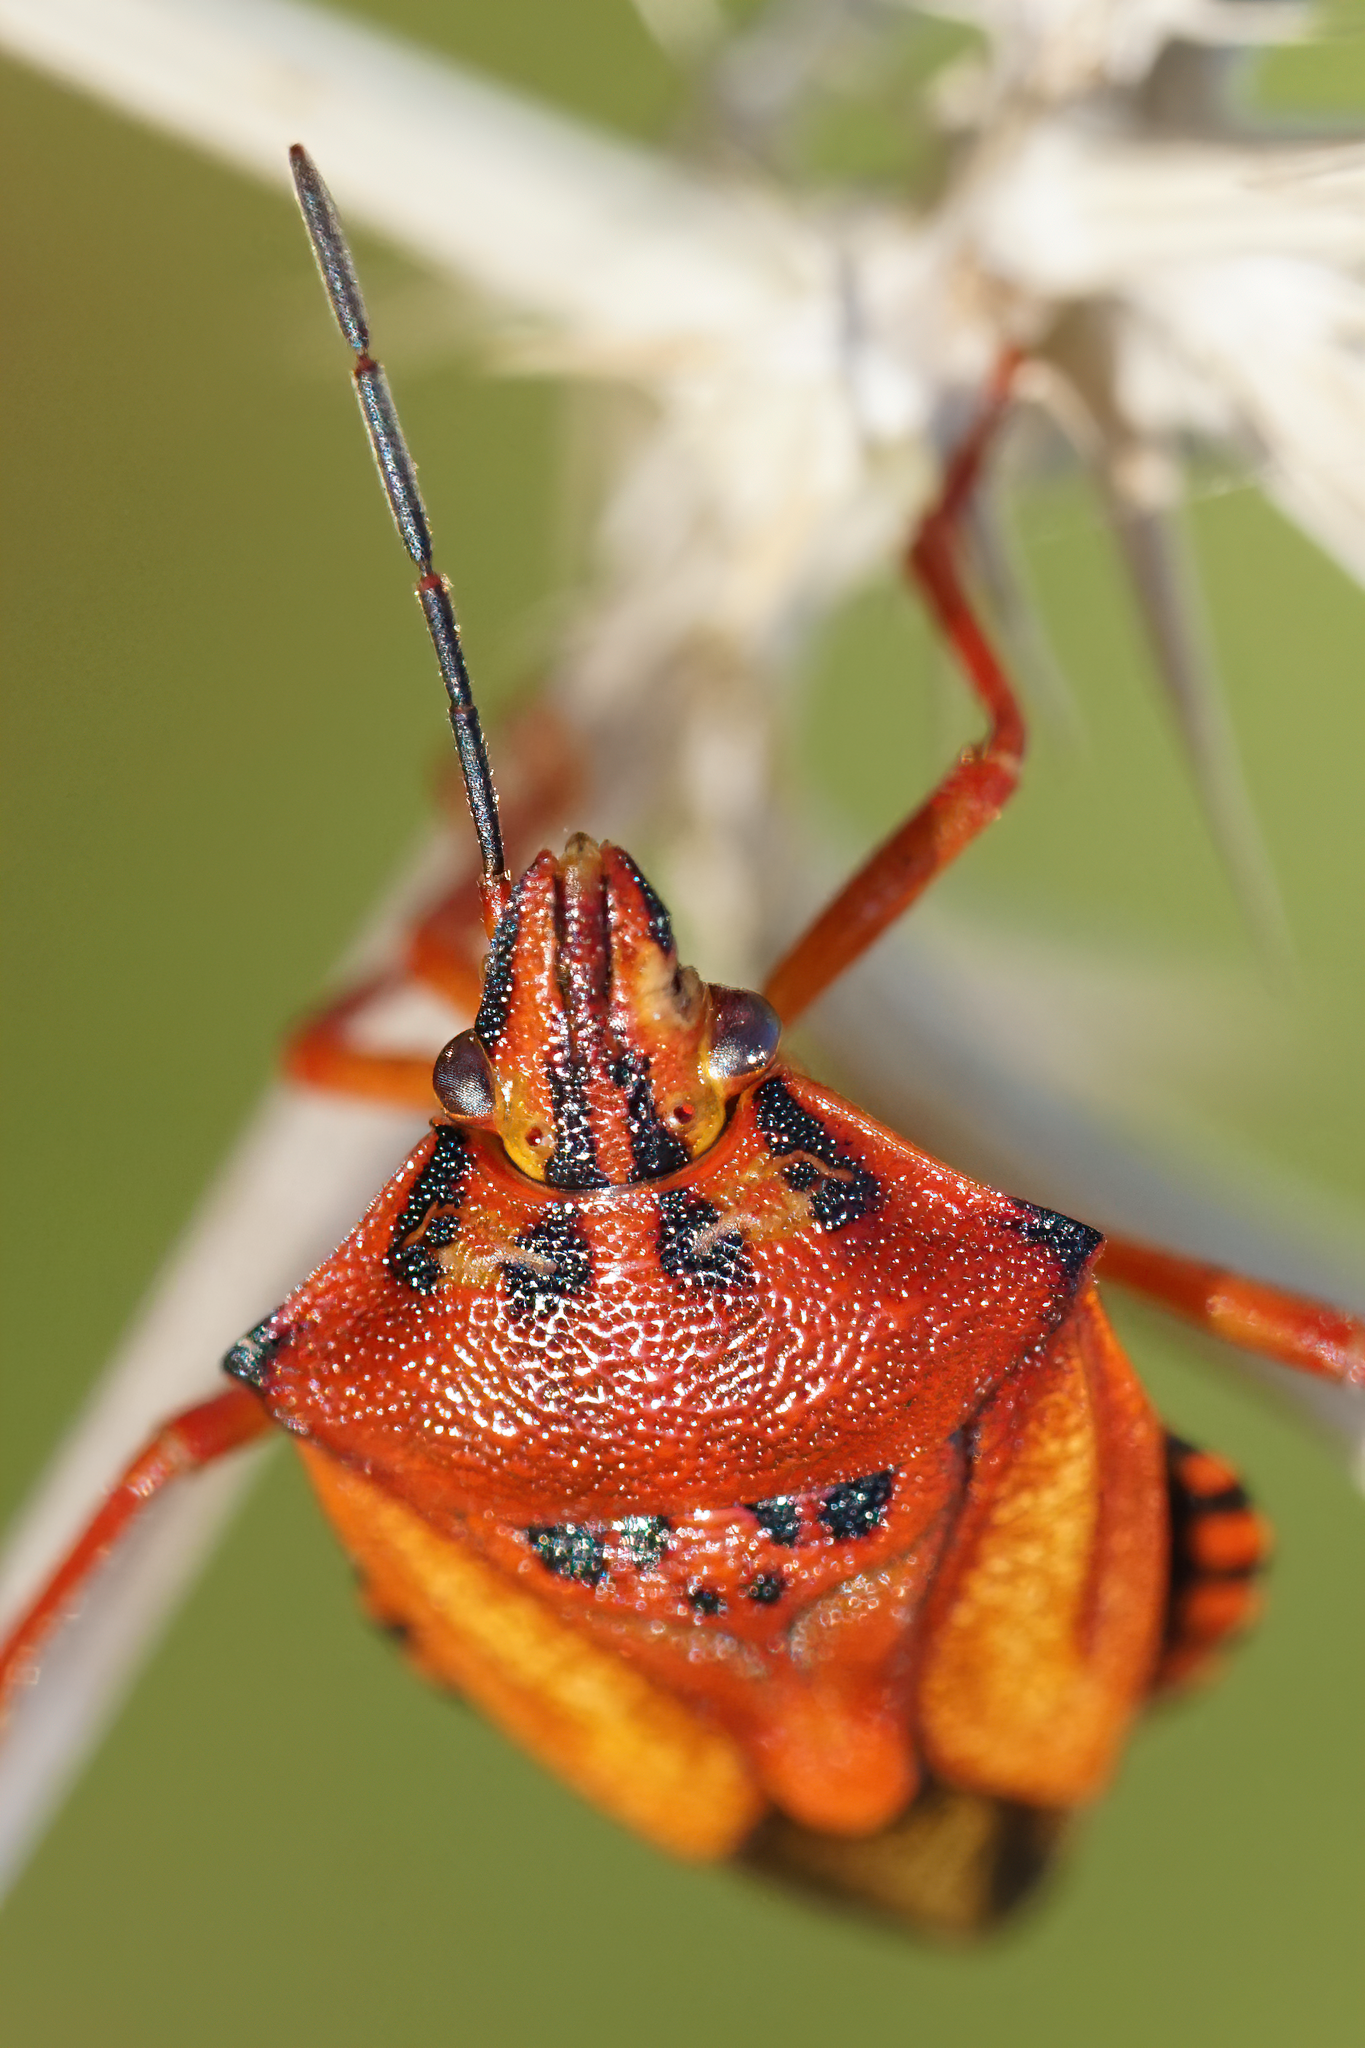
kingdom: Animalia
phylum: Arthropoda
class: Insecta
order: Hemiptera
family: Pentatomidae
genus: Carpocoris
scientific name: Carpocoris mediterraneus
